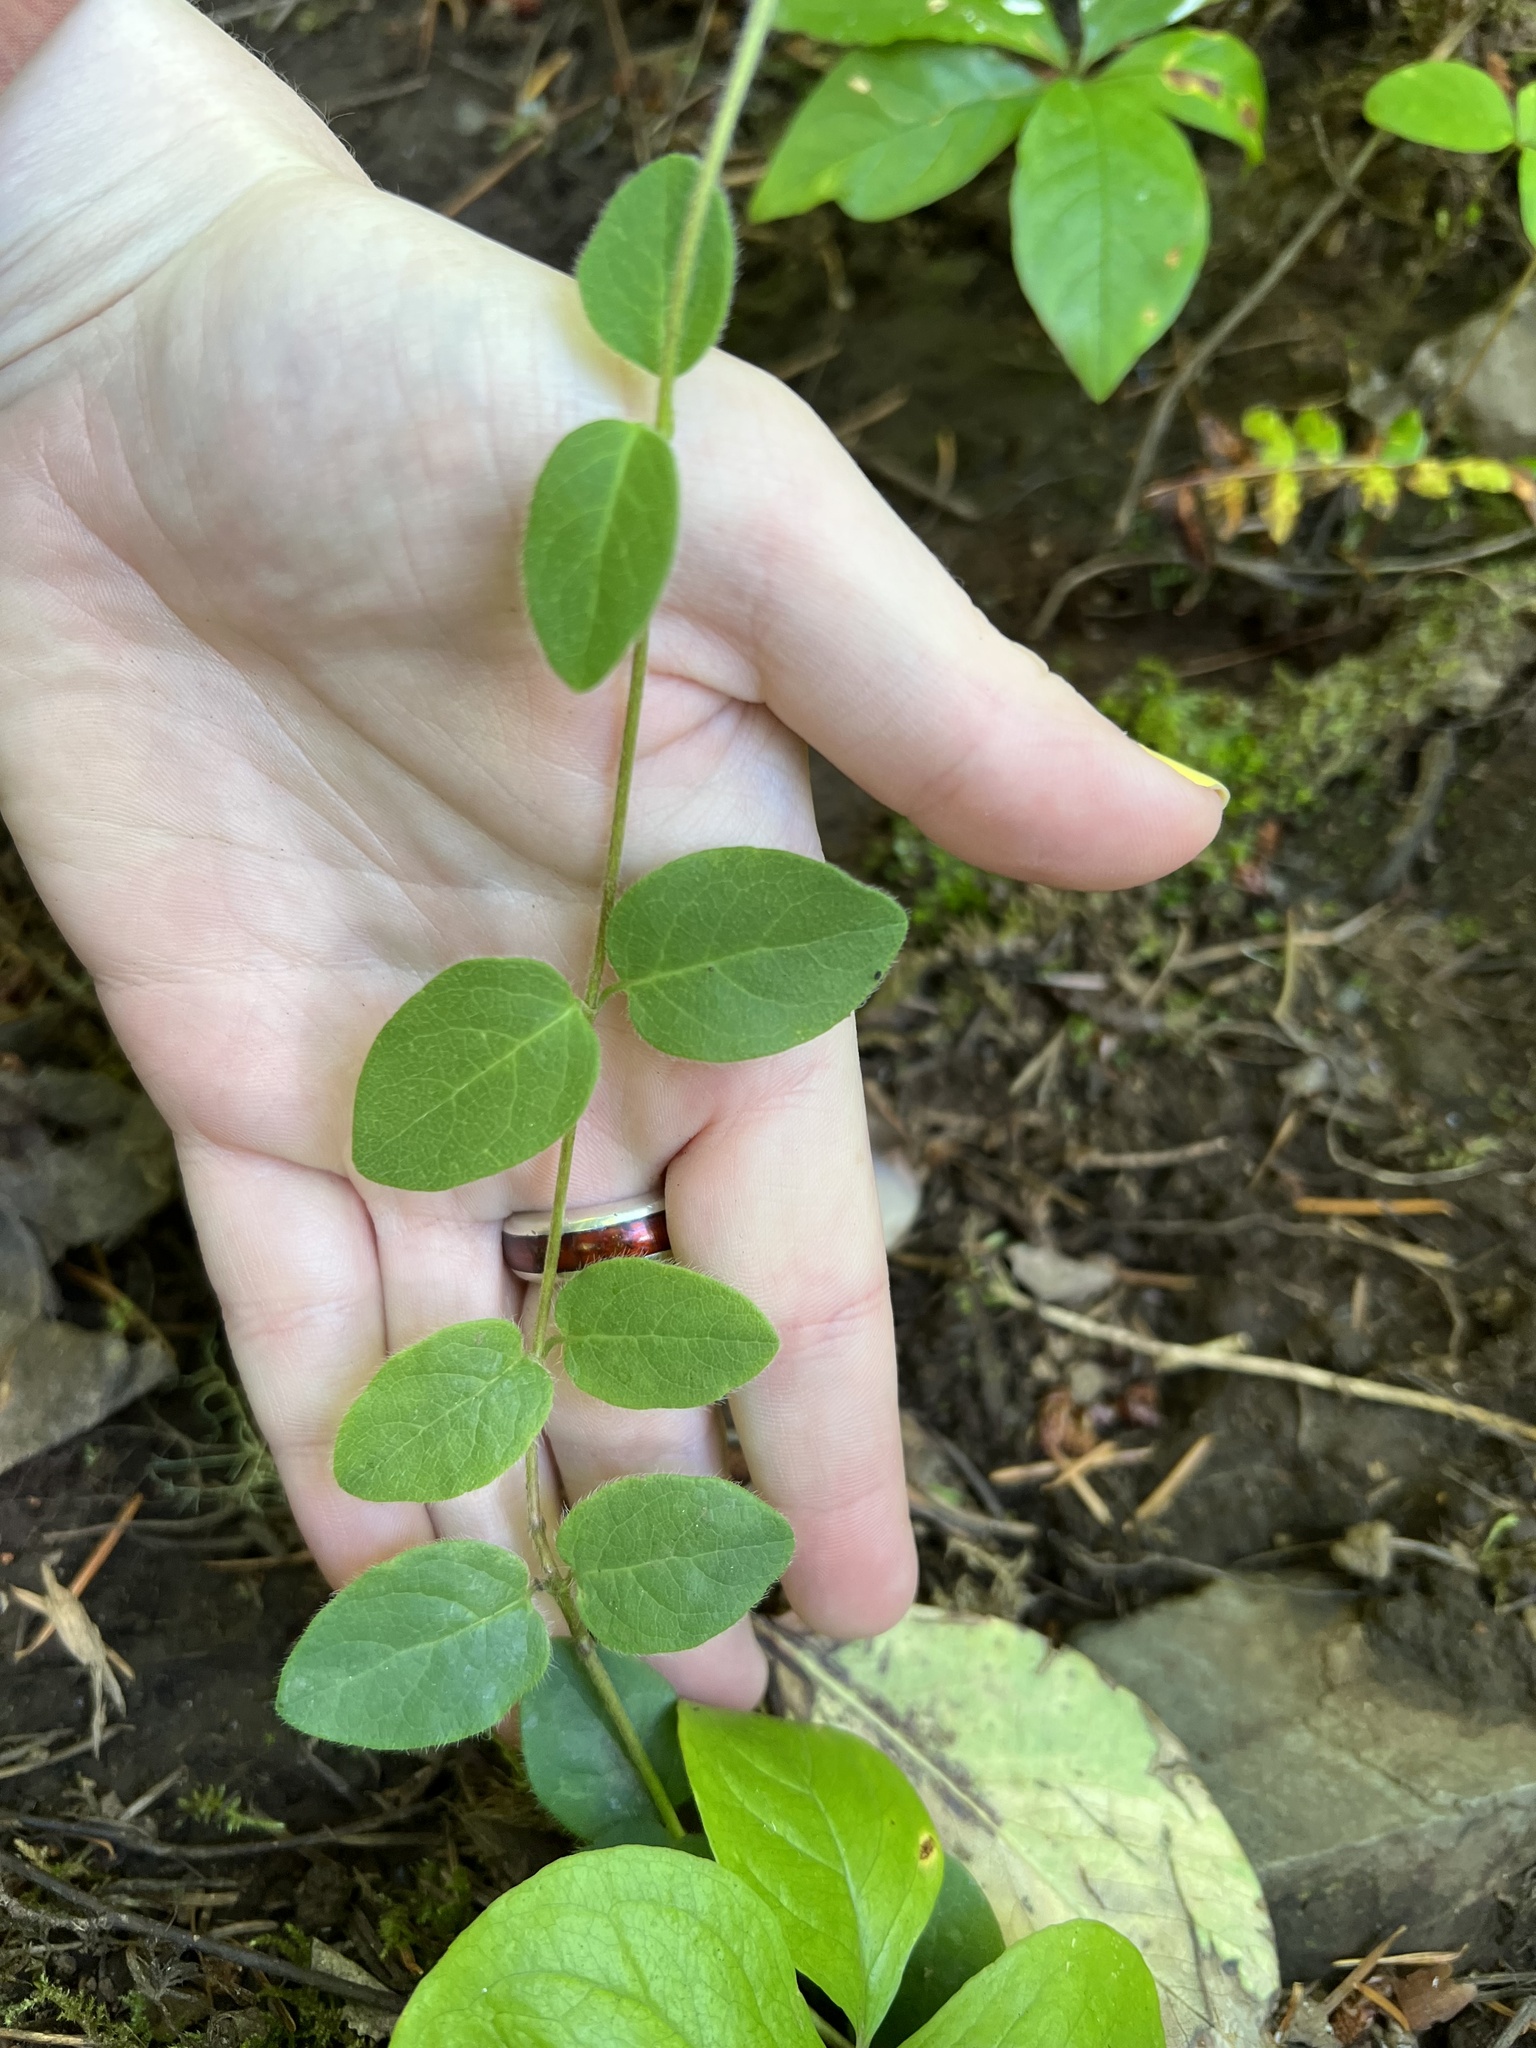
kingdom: Plantae
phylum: Tracheophyta
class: Magnoliopsida
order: Dipsacales
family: Caprifoliaceae
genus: Lonicera
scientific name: Lonicera hispidula
